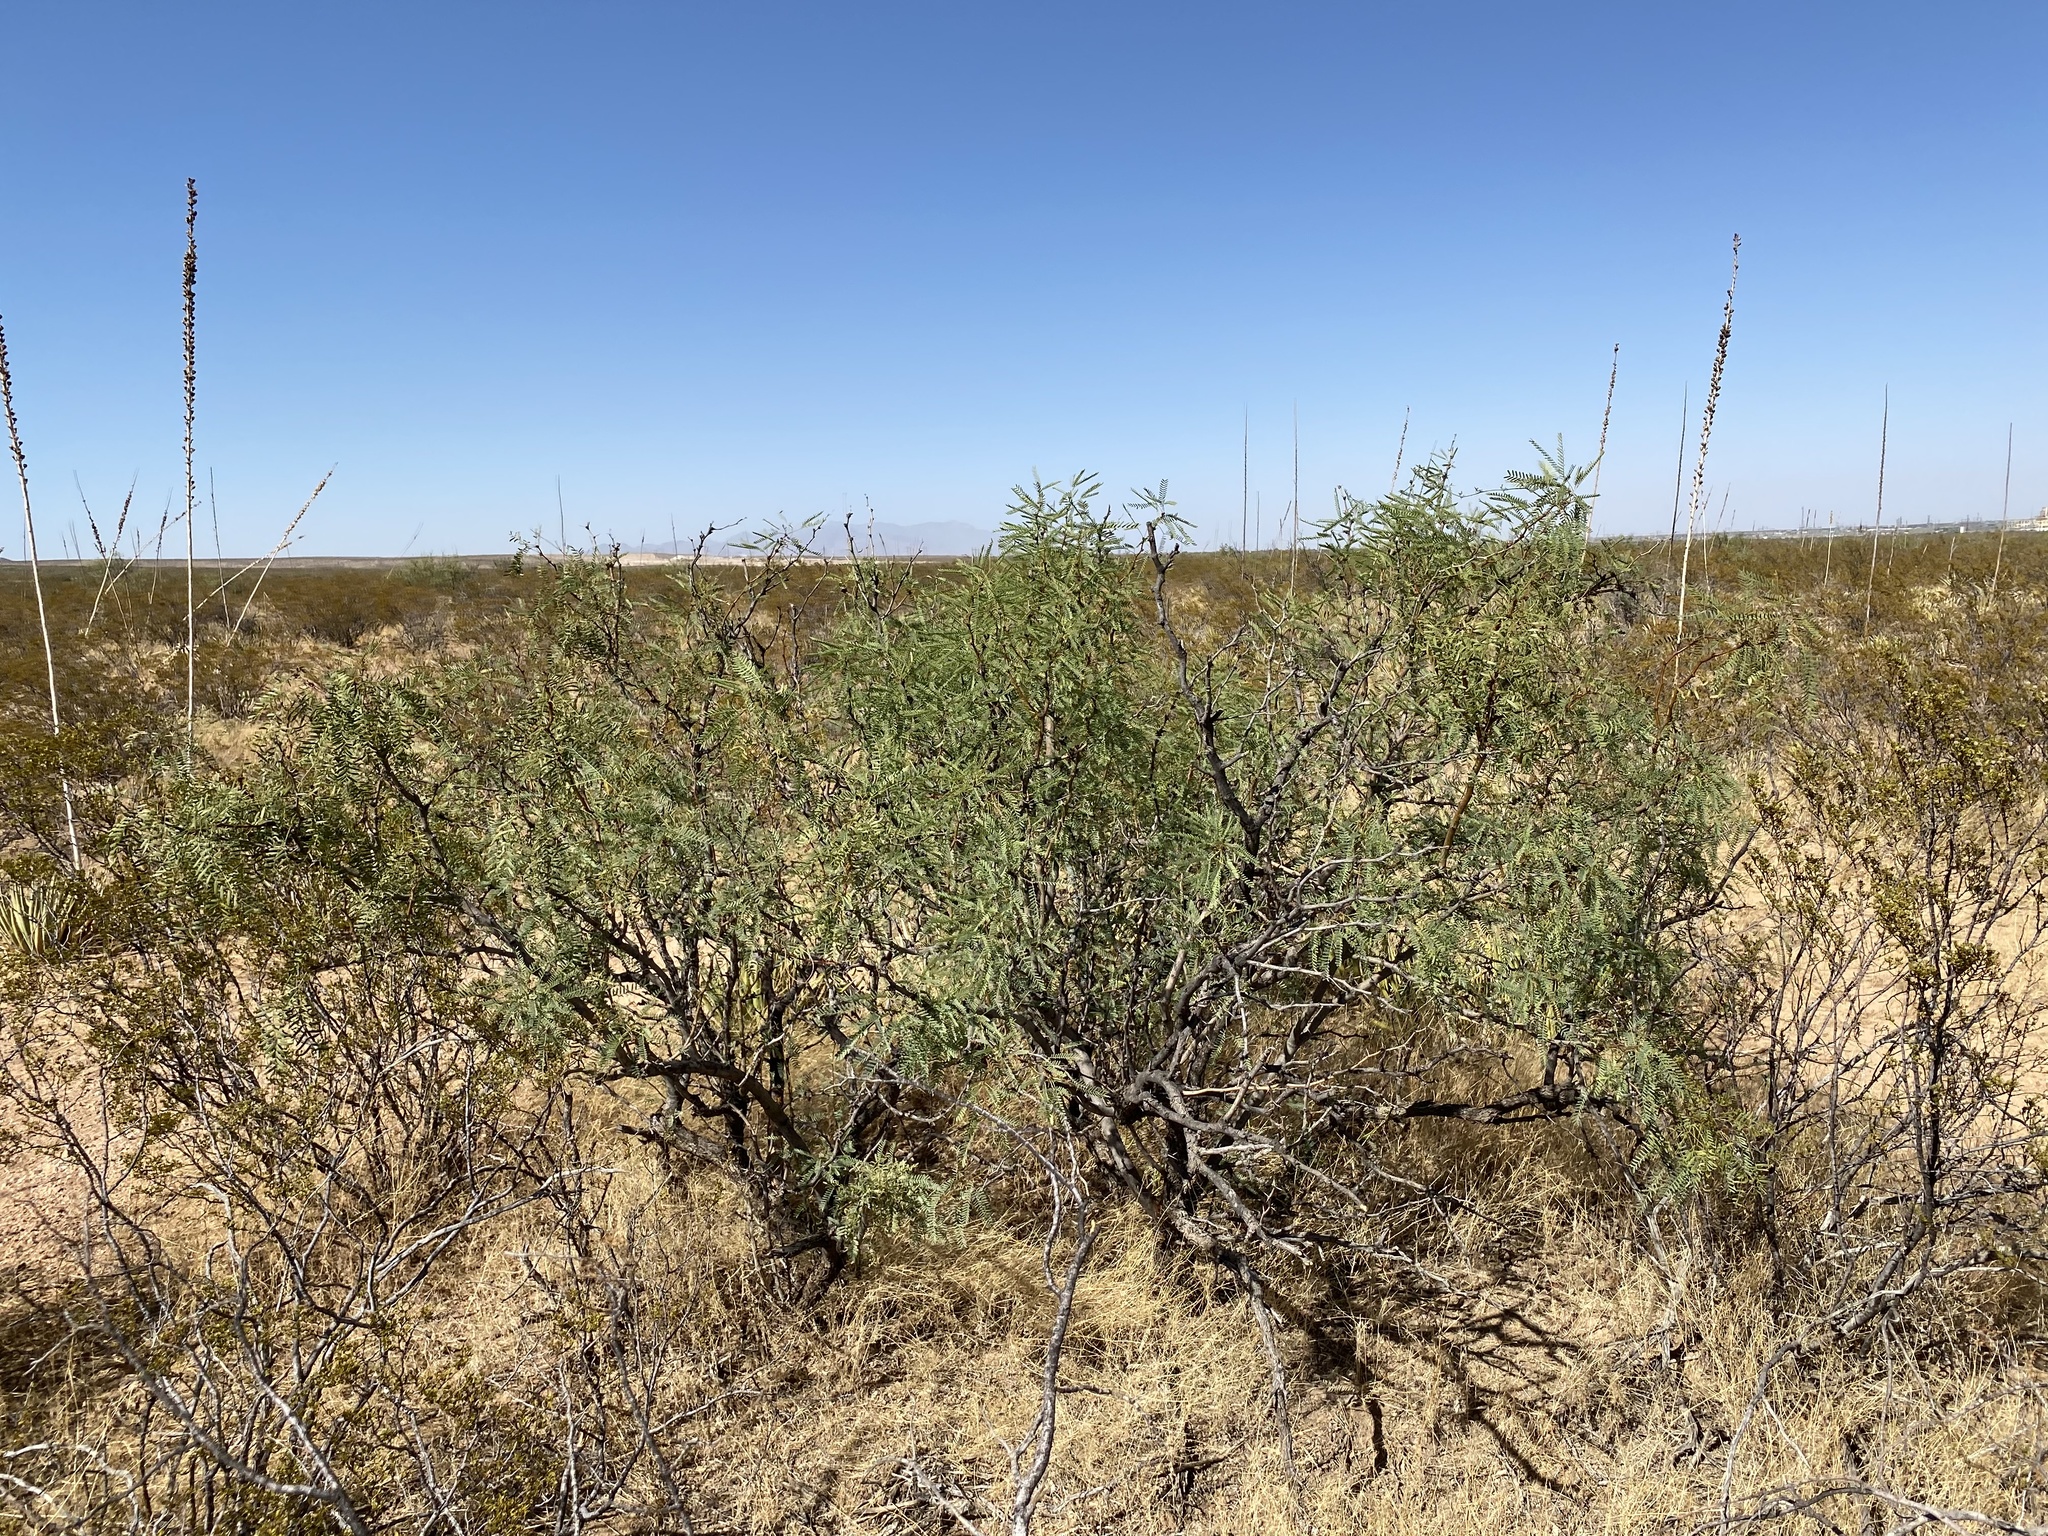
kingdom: Plantae
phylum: Tracheophyta
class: Magnoliopsida
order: Fabales
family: Fabaceae
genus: Prosopis
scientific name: Prosopis glandulosa
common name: Honey mesquite
